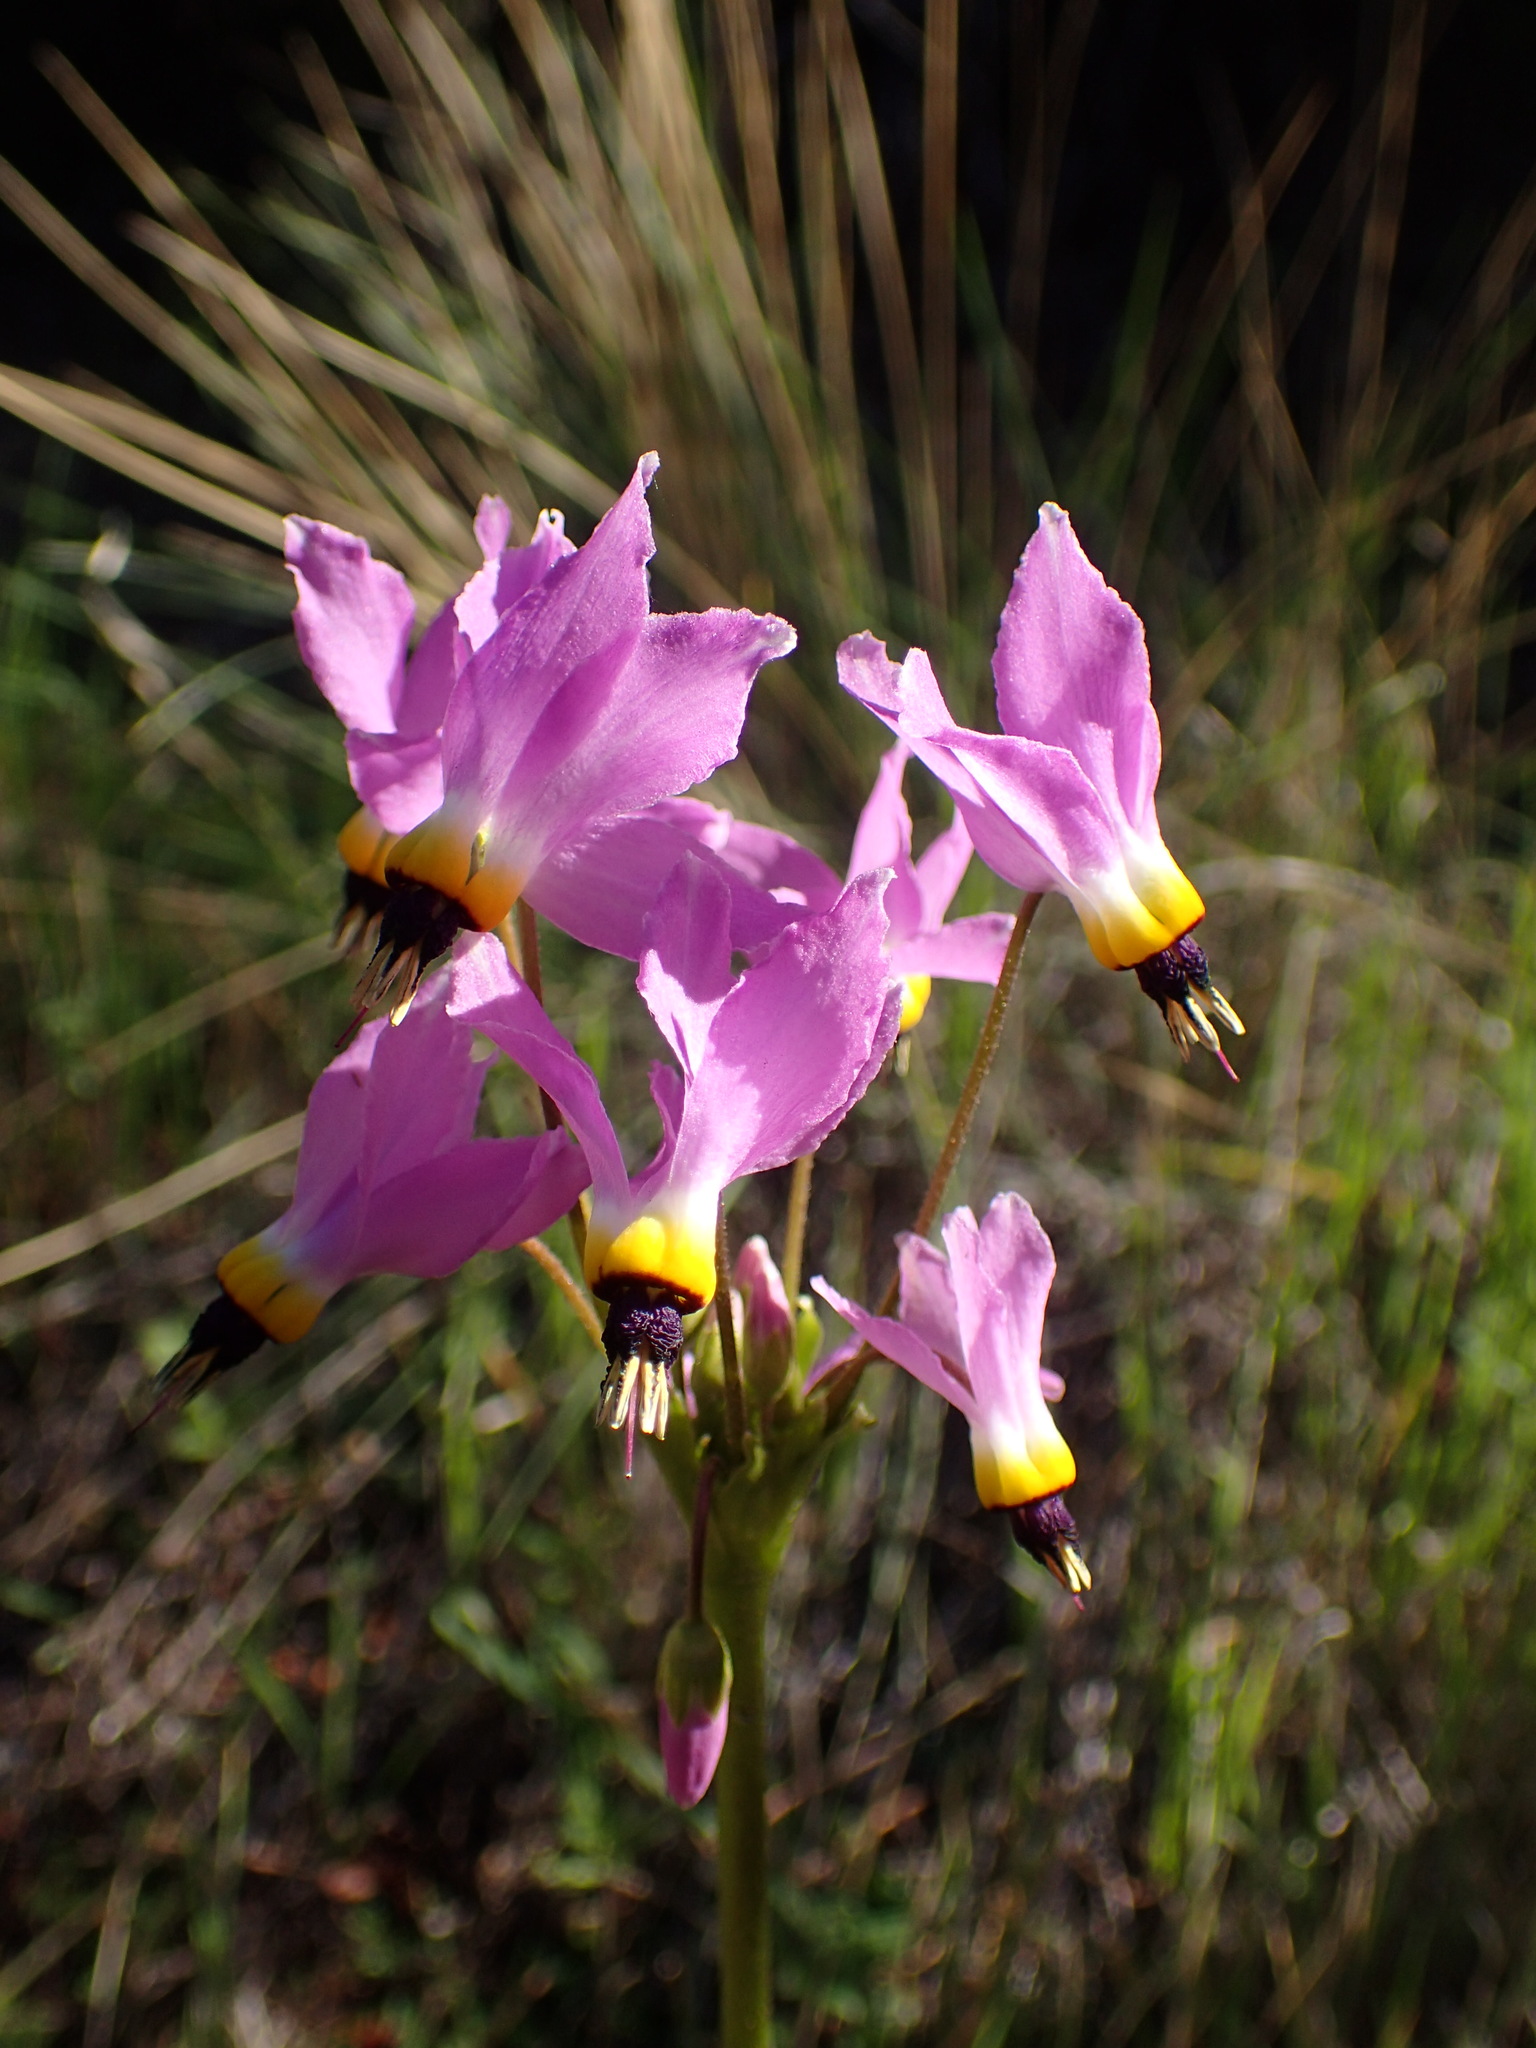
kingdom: Plantae
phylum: Tracheophyta
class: Magnoliopsida
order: Ericales
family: Primulaceae
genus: Dodecatheon
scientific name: Dodecatheon clevelandii
